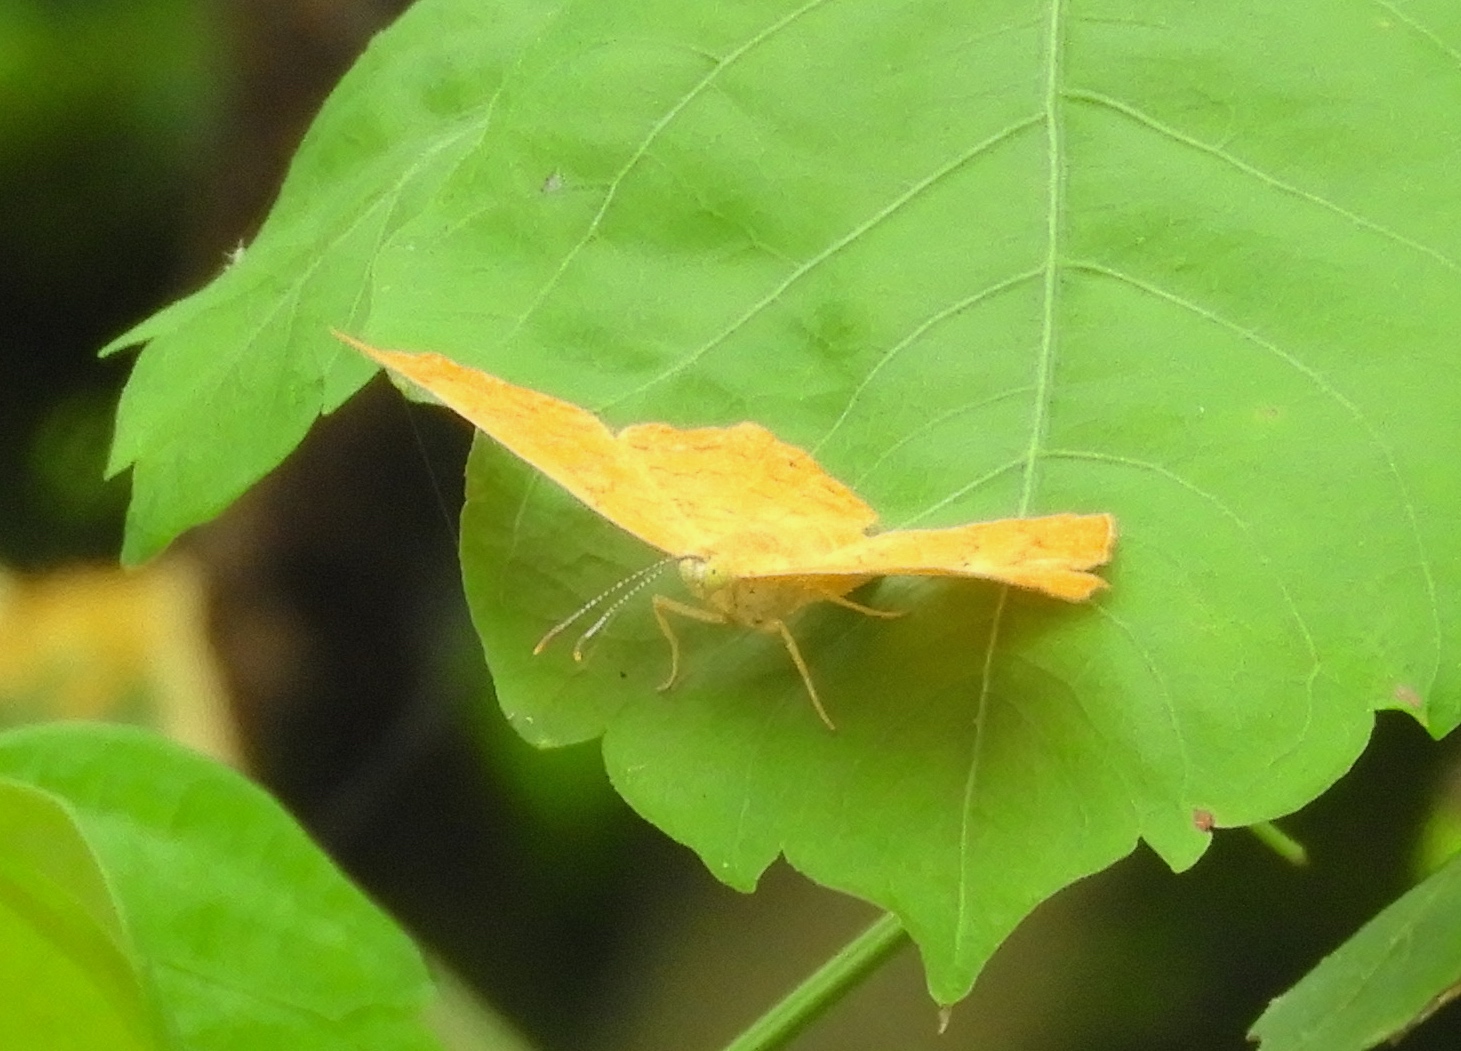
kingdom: Animalia
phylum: Arthropoda
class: Insecta
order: Lepidoptera
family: Lycaenidae
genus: Emesis
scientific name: Emesis
